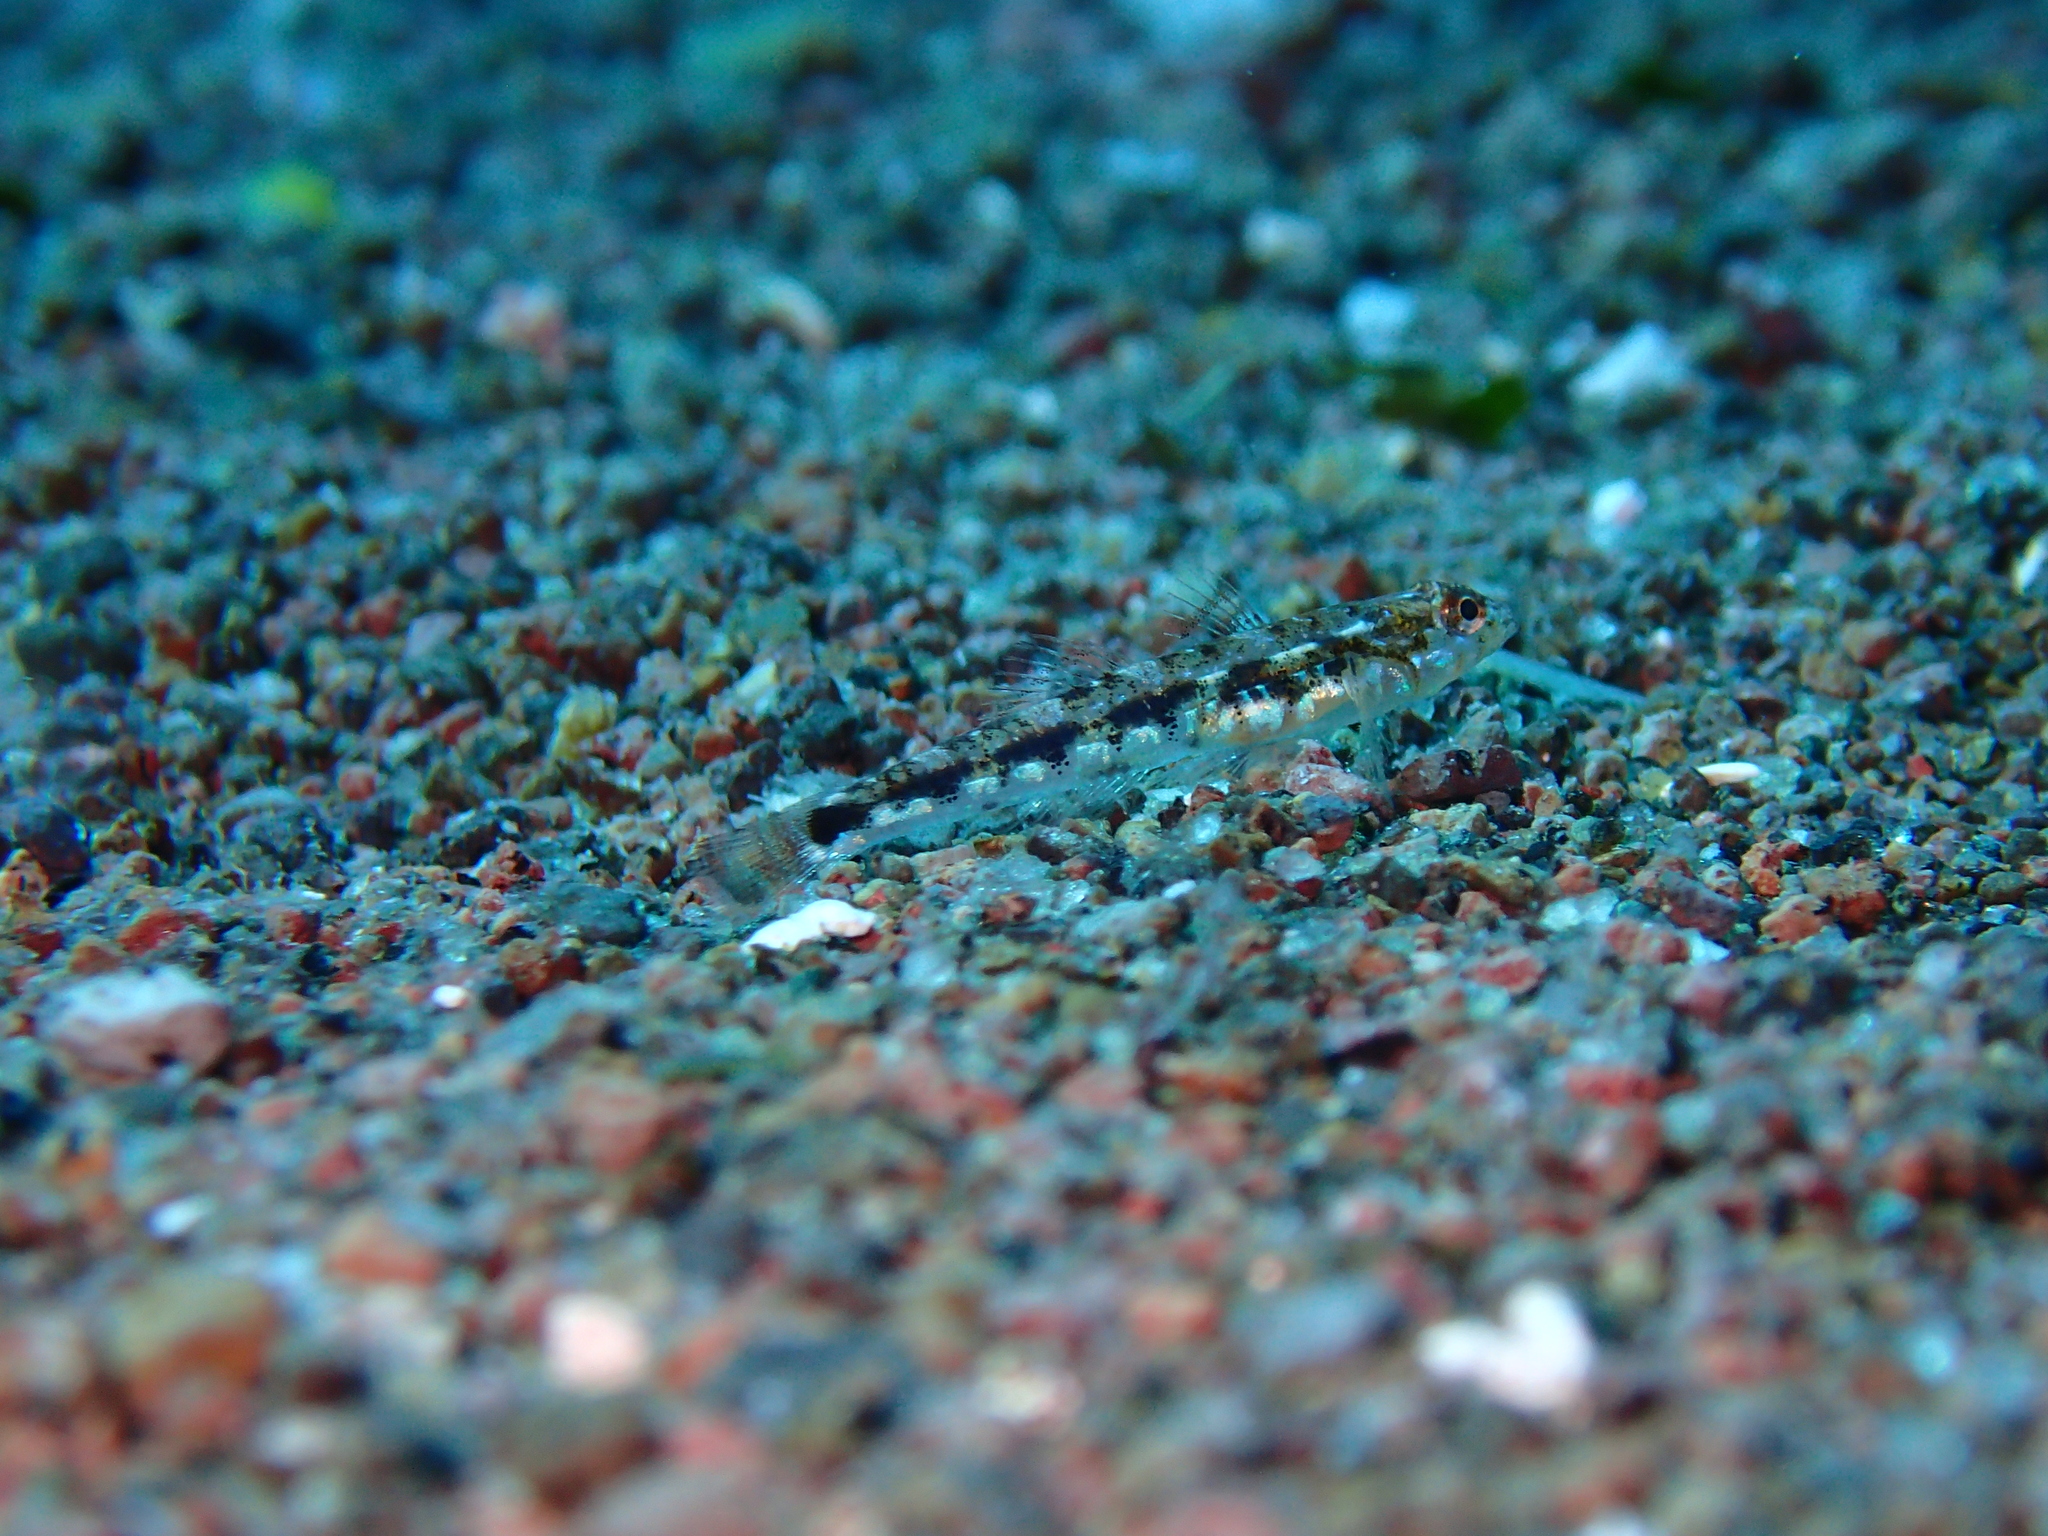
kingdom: Animalia
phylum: Chordata
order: Perciformes
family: Gobiidae
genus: Pomatoschistus
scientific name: Pomatoschistus bathi
